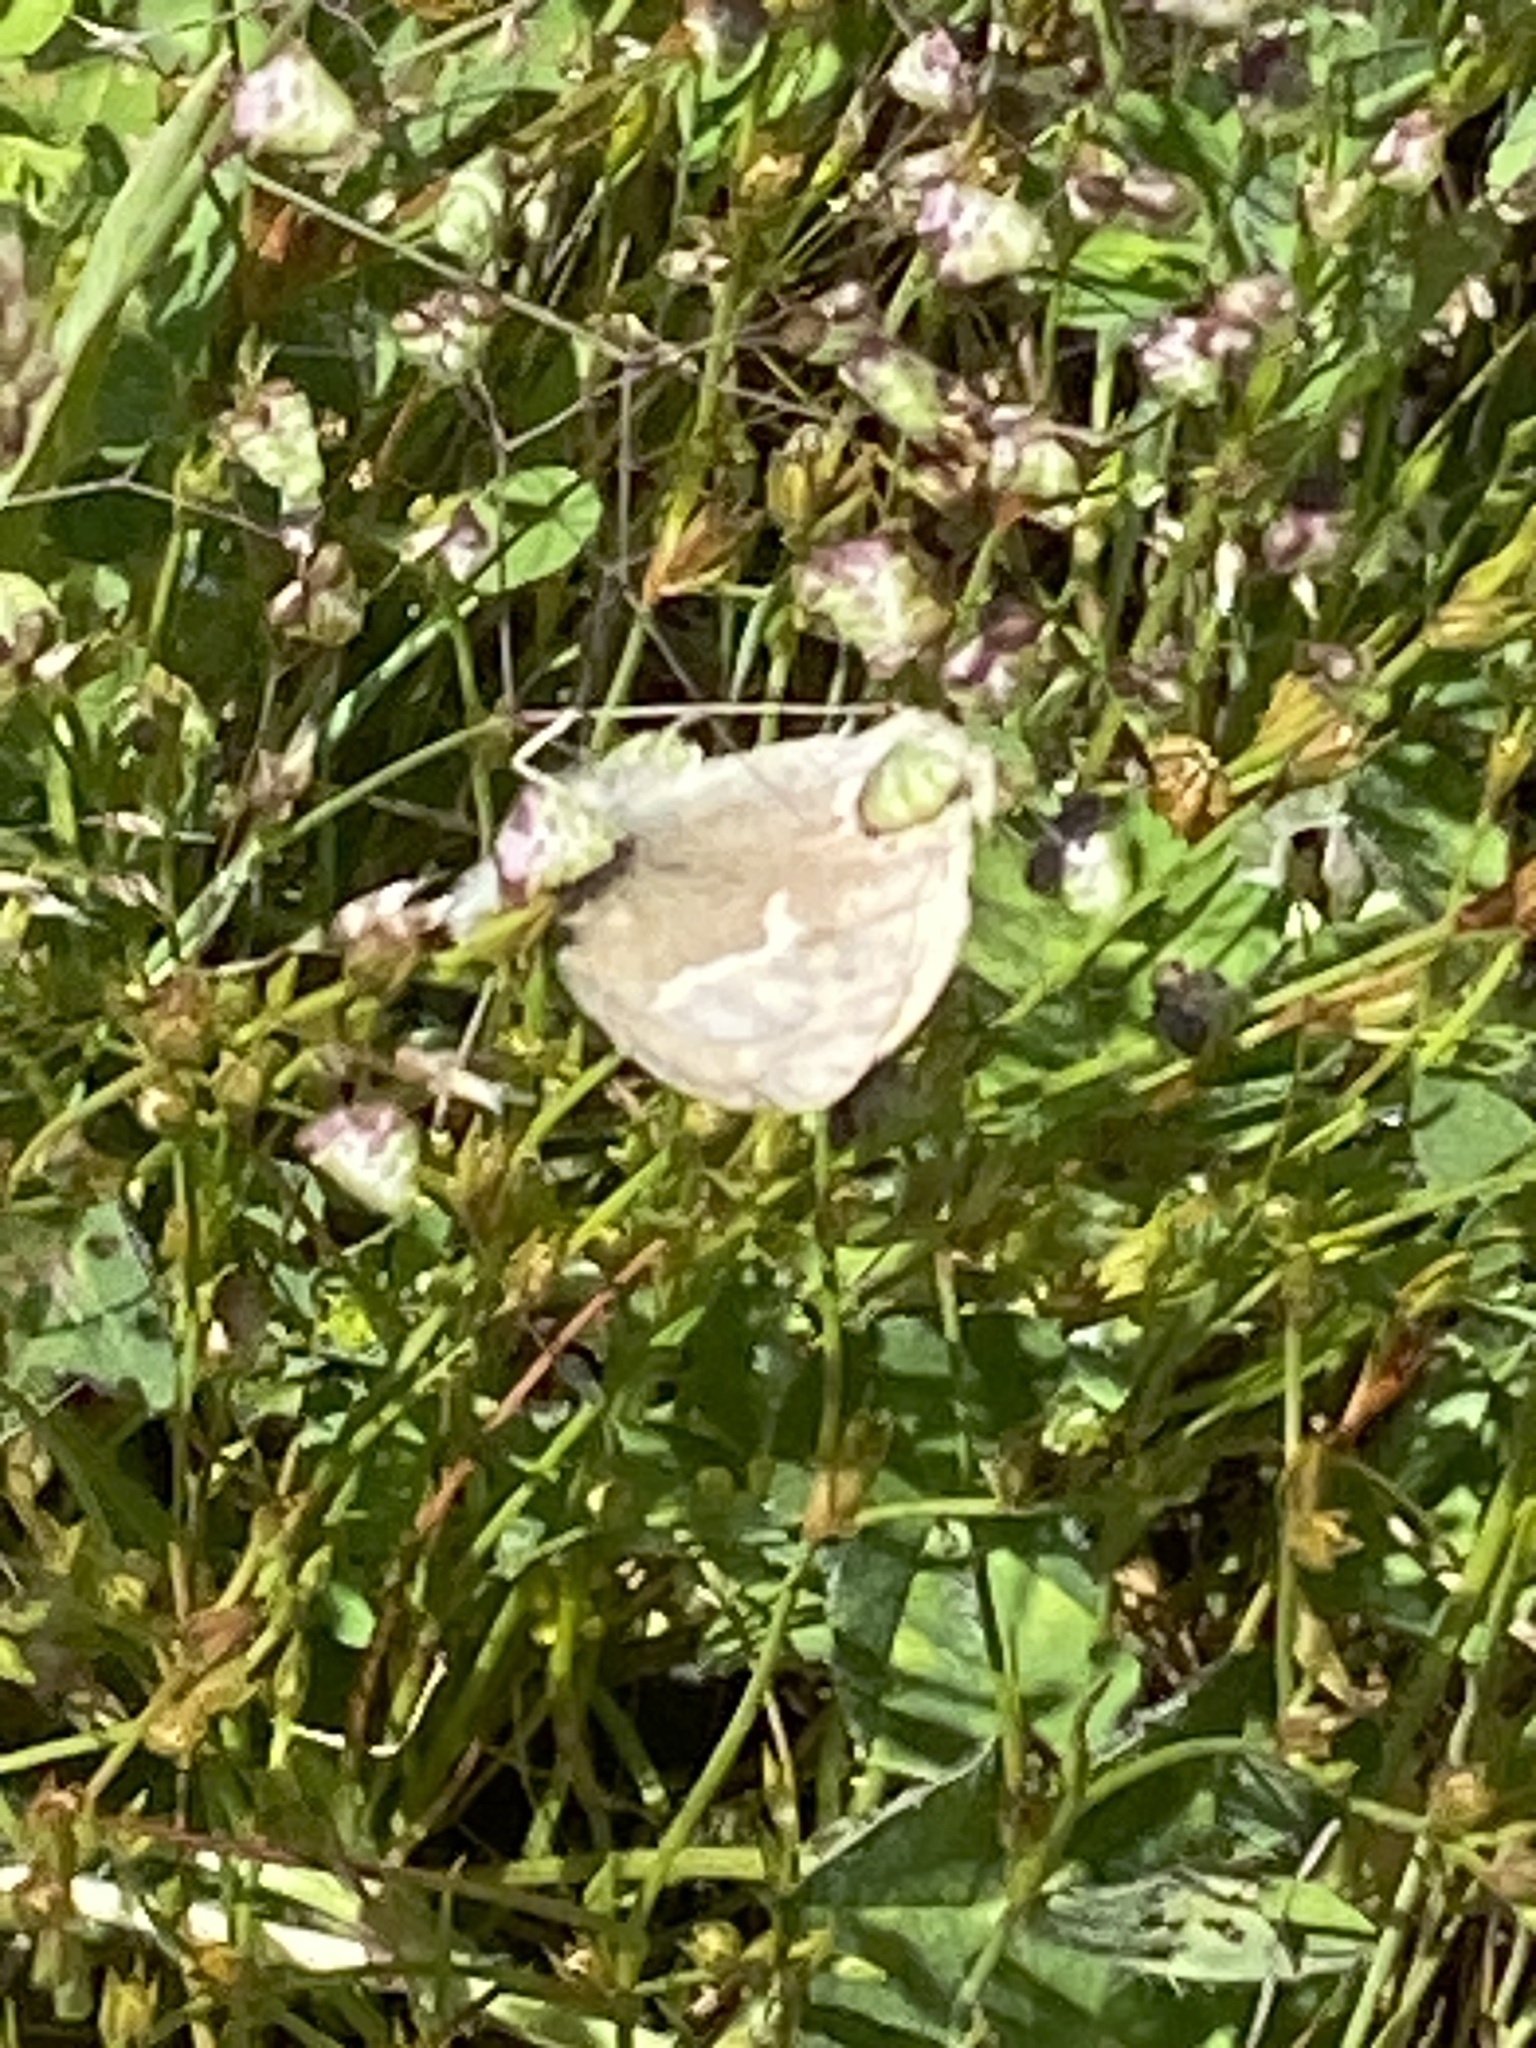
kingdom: Animalia
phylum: Arthropoda
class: Insecta
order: Lepidoptera
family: Nymphalidae
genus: Coenonympha
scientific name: Coenonympha california
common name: Common ringlet
